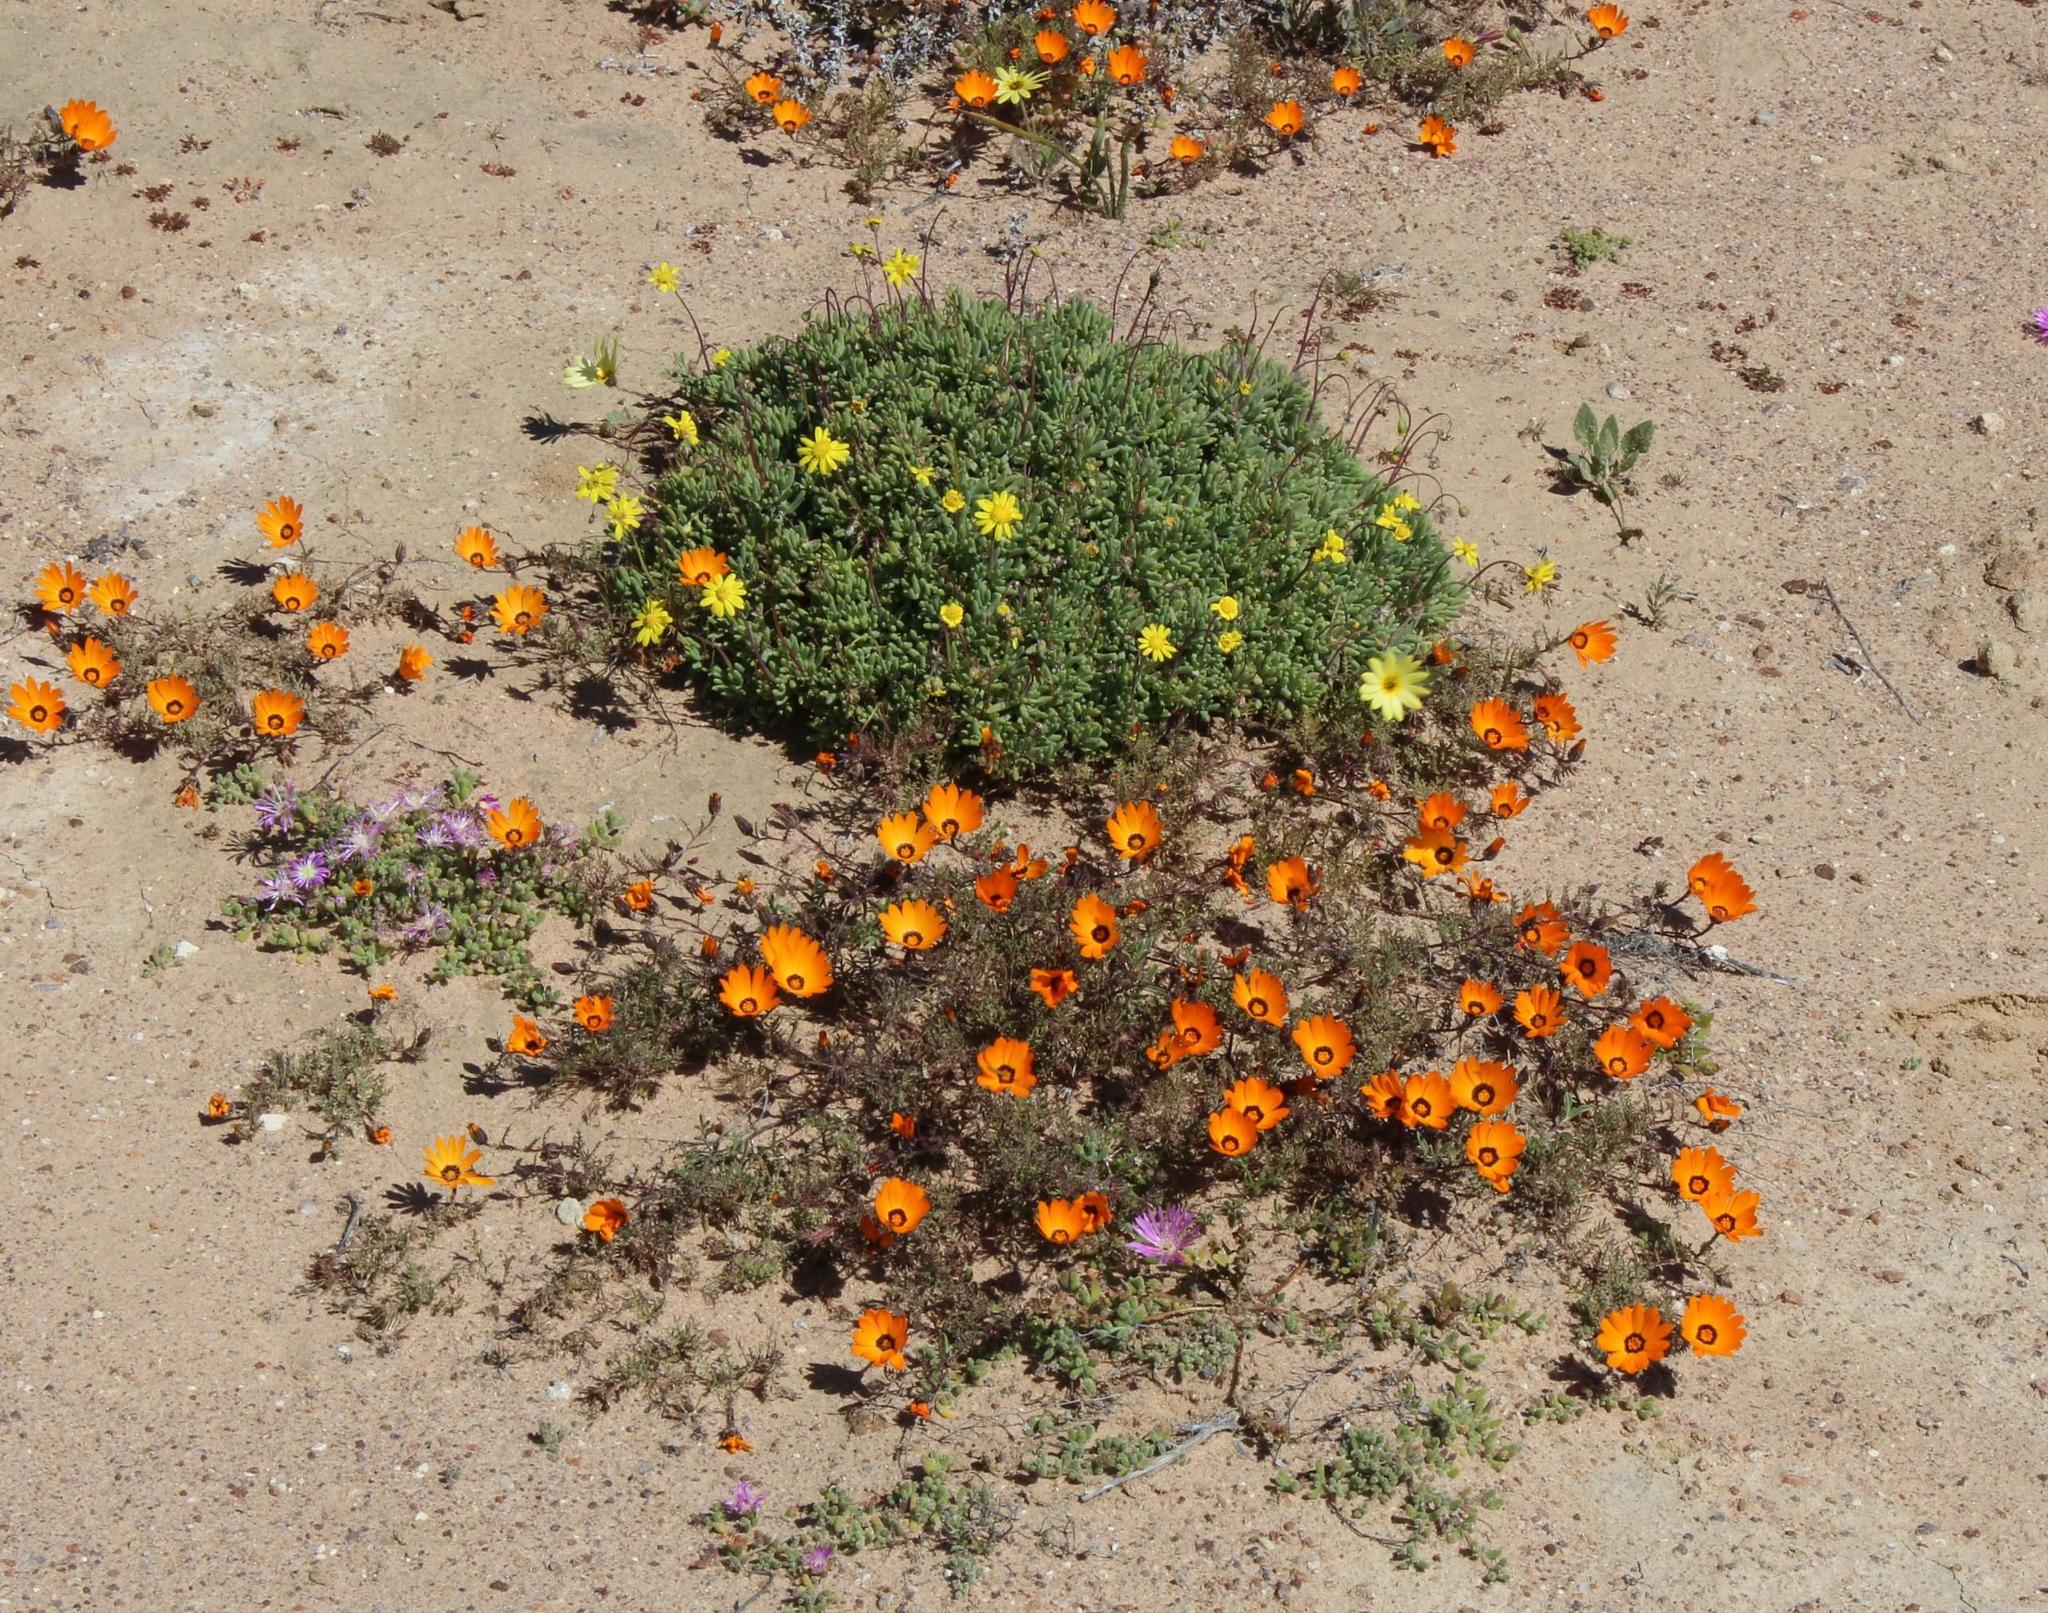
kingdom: Plantae
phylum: Tracheophyta
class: Magnoliopsida
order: Asterales
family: Asteraceae
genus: Dimorphotheca
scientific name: Dimorphotheca pinnata
